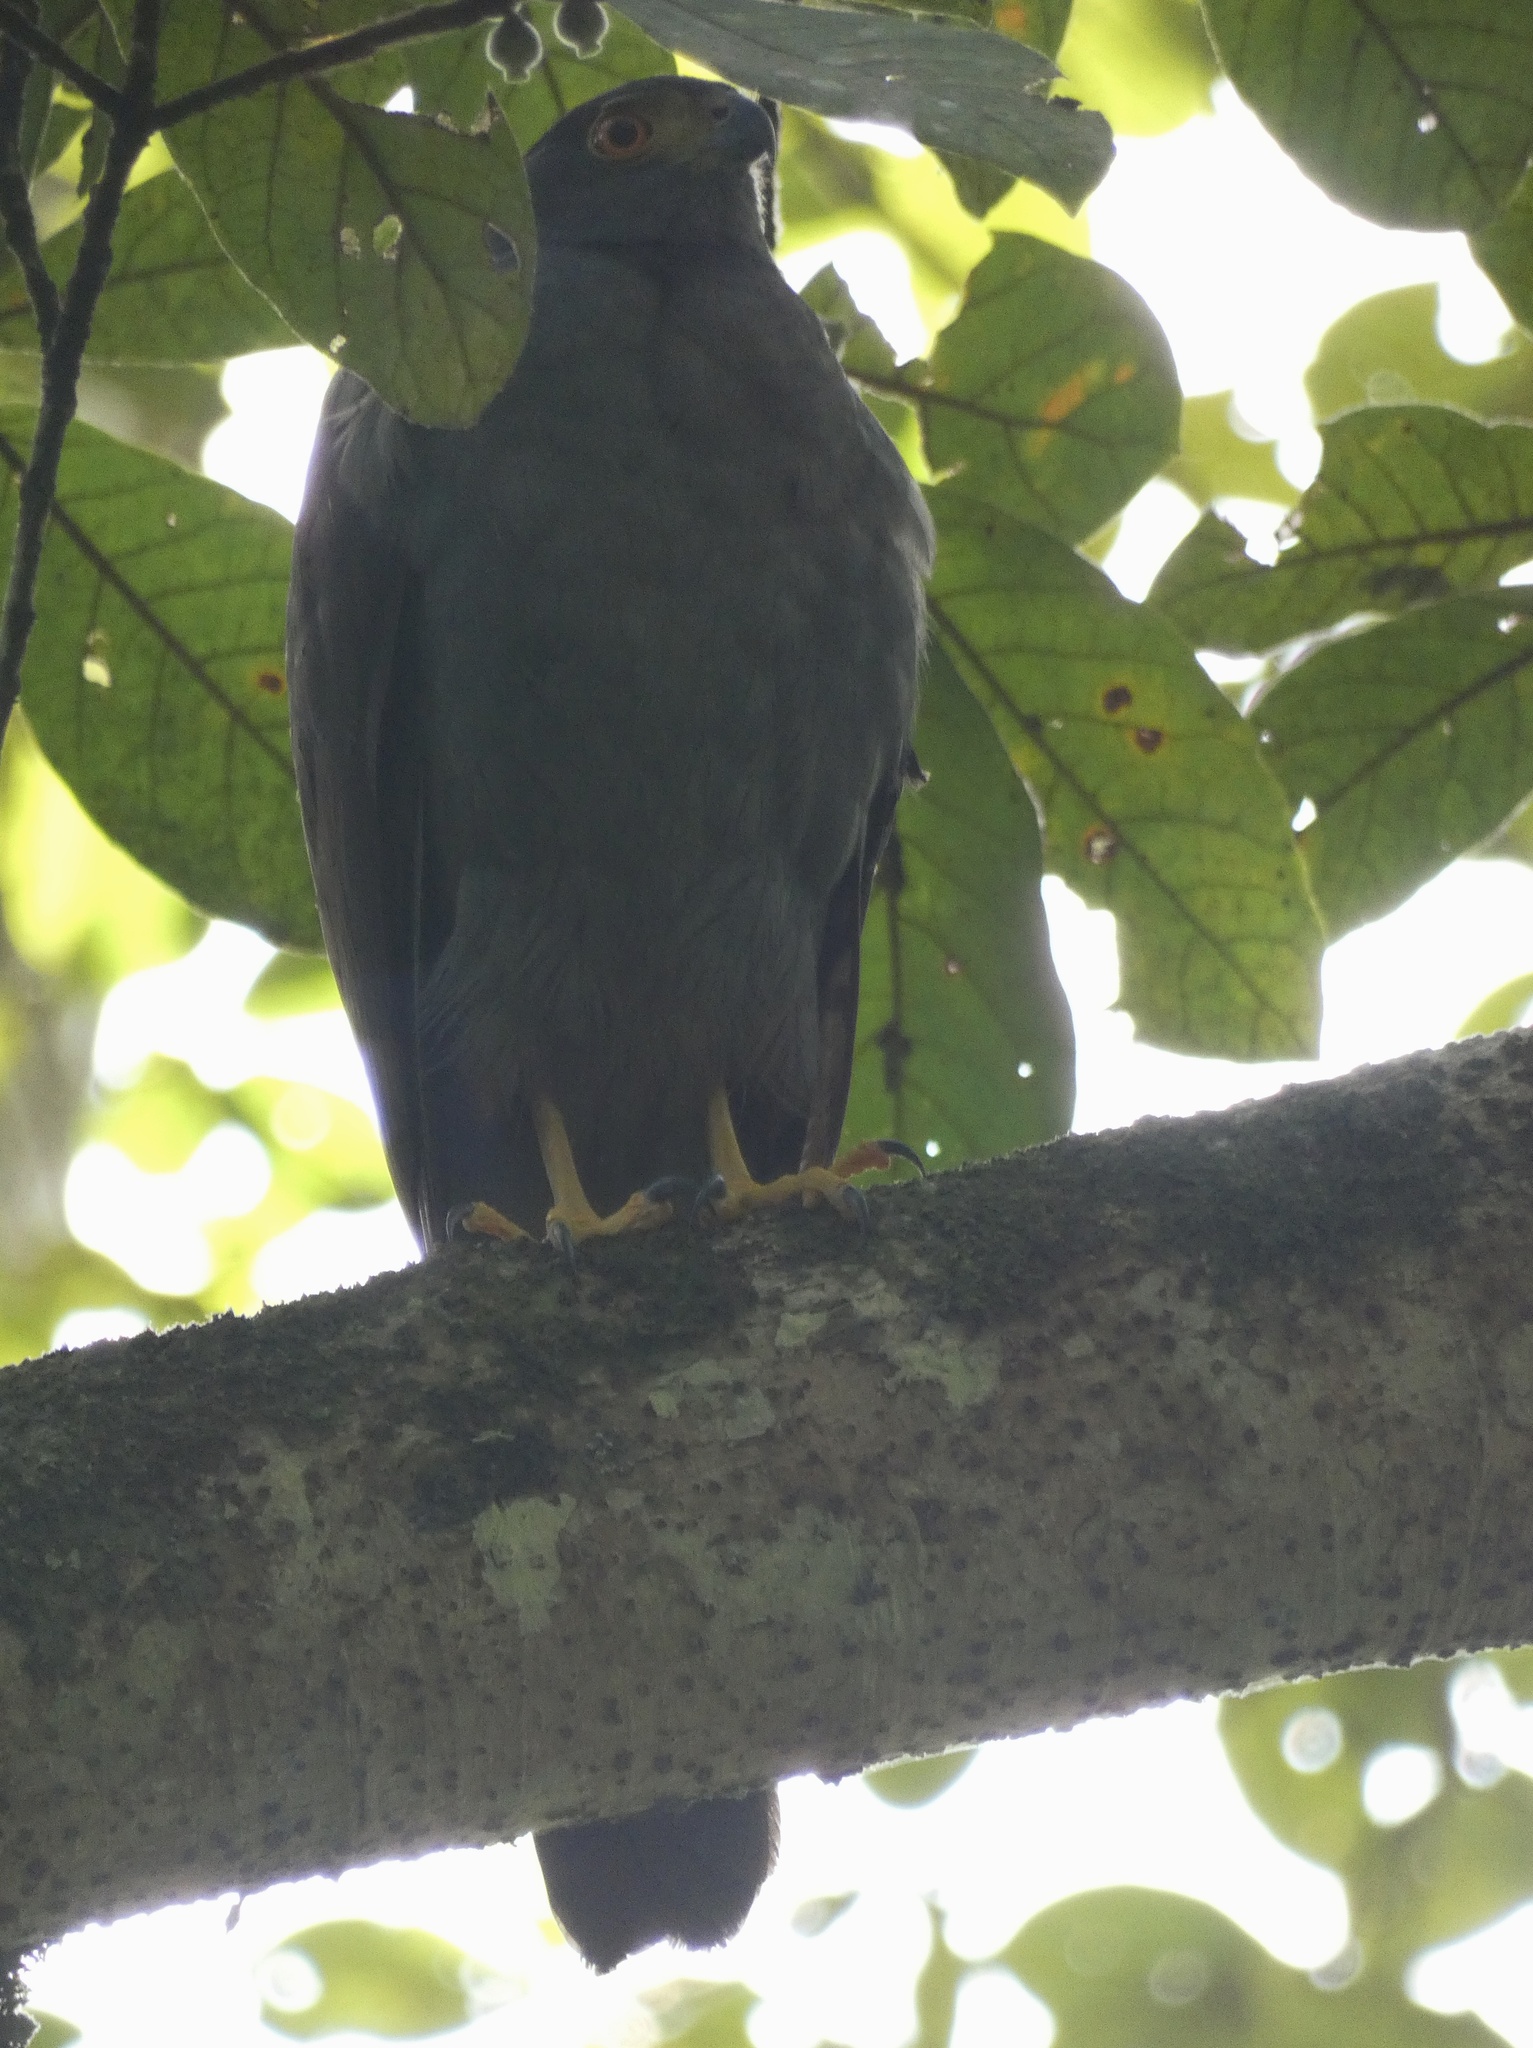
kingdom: Animalia
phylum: Chordata
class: Aves
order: Accipitriformes
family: Accipitridae
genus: Accipiter
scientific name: Accipiter bicolor
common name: Bicolored hawk
